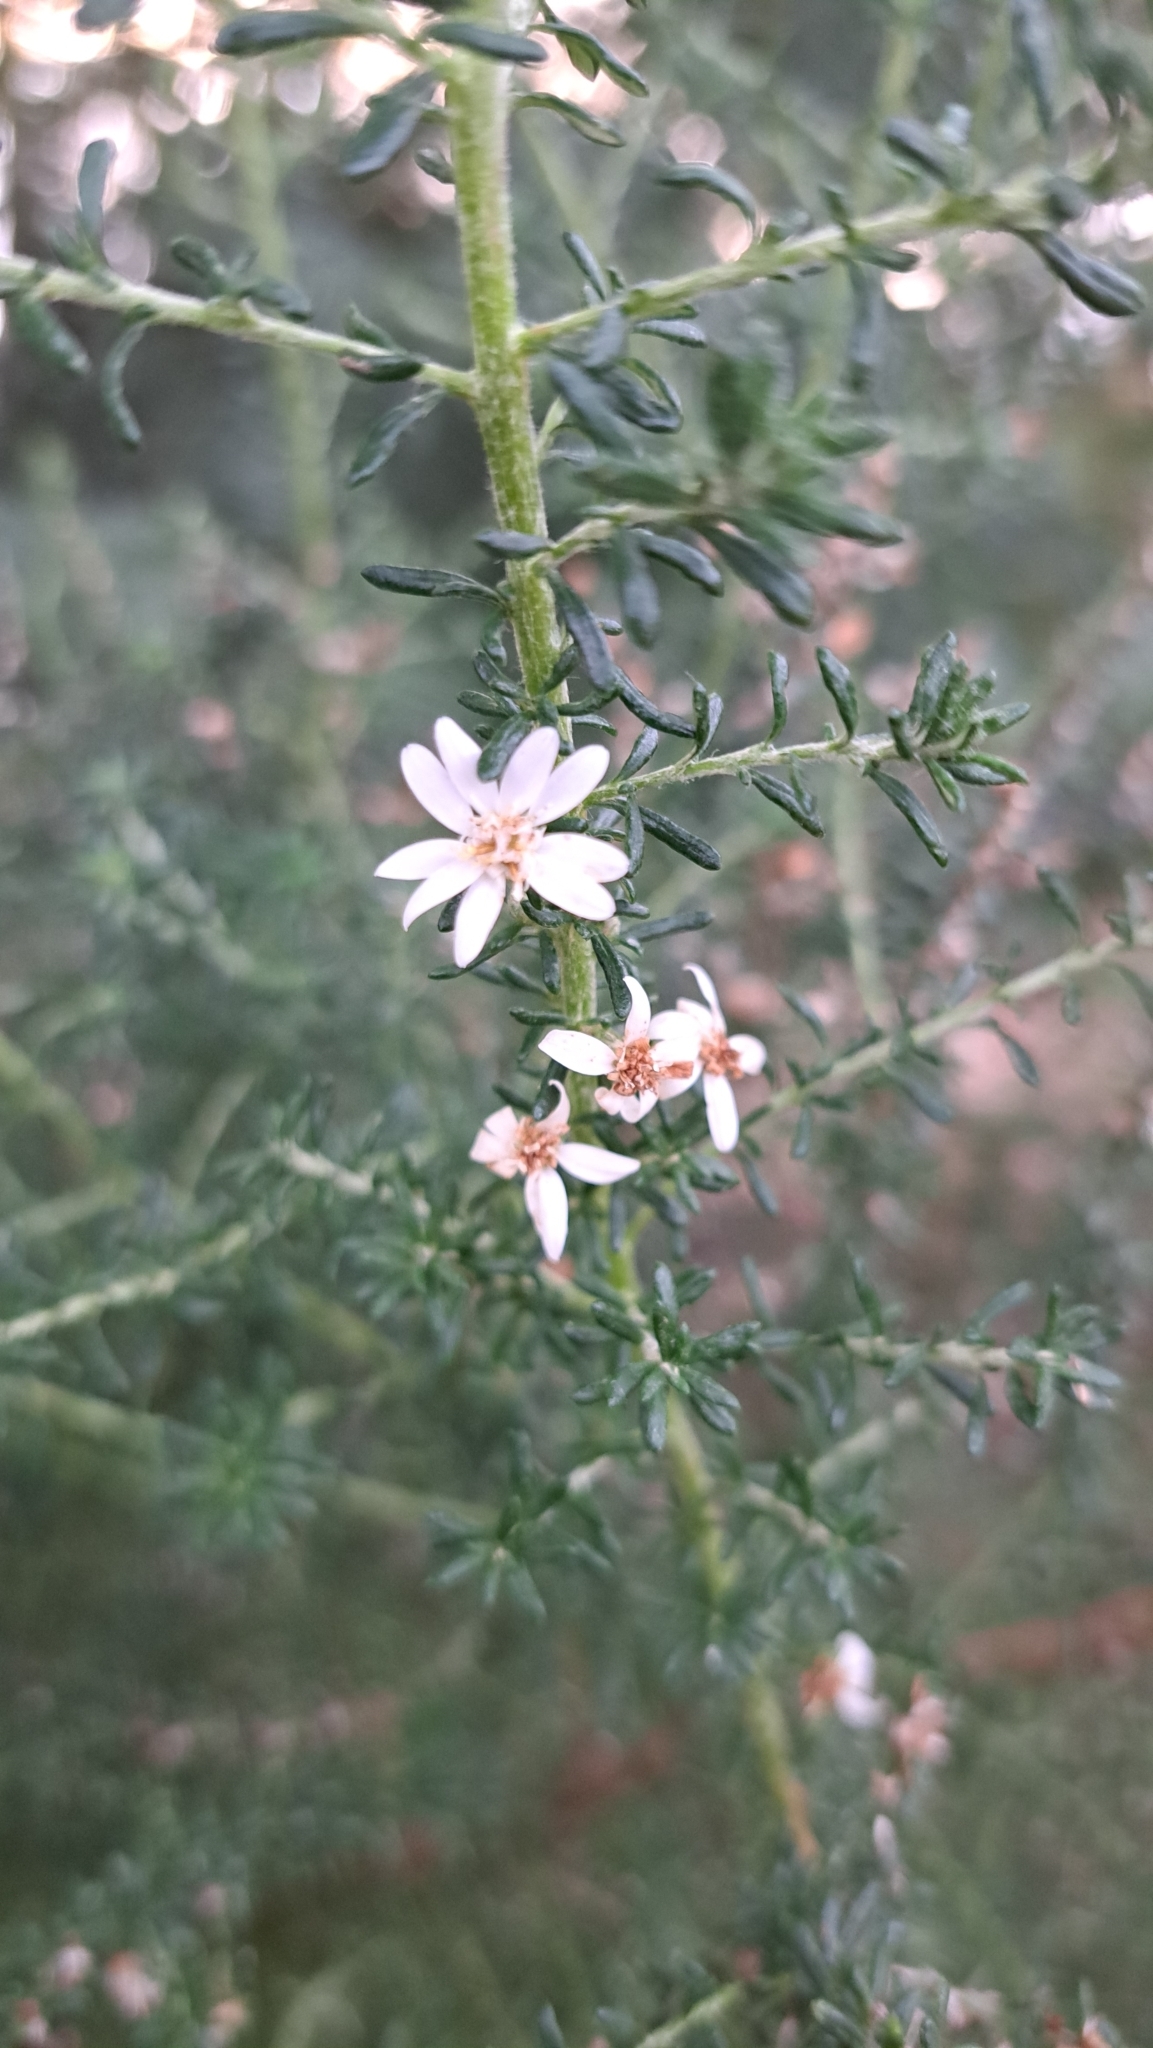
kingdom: Plantae
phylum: Tracheophyta
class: Magnoliopsida
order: Asterales
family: Asteraceae
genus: Olearia
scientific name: Olearia ramulosa
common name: Twiggy daisybush
